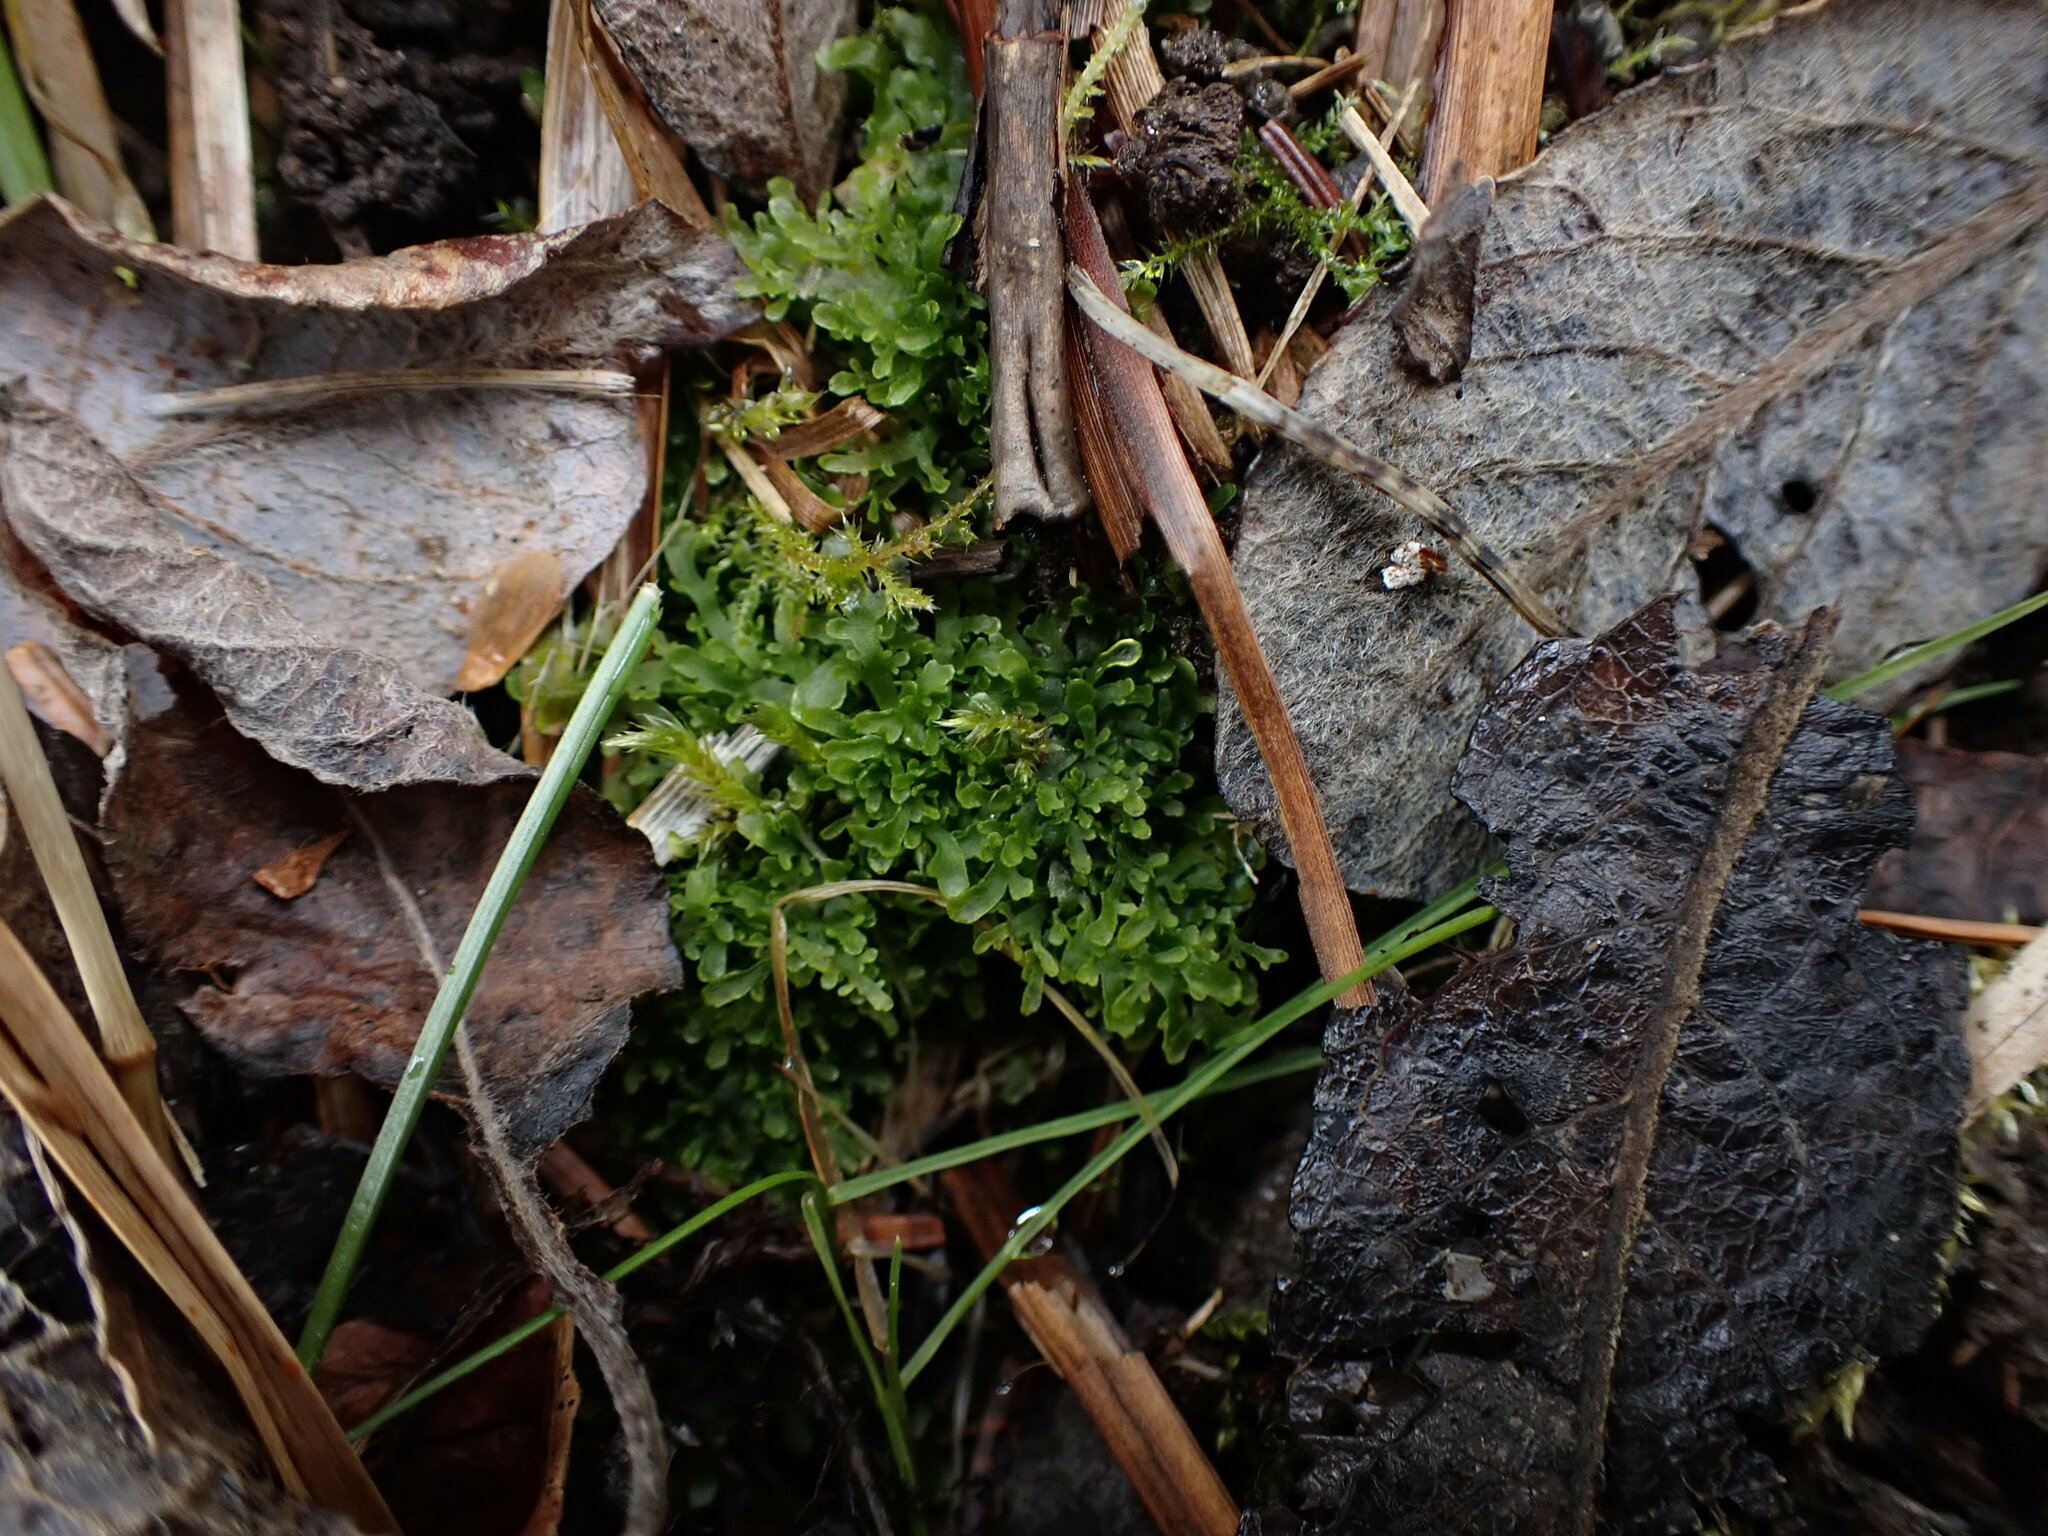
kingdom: Plantae
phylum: Marchantiophyta
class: Jungermanniopsida
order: Metzgeriales
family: Aneuraceae
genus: Riccardia
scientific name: Riccardia chamedryfolia
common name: Jagged germanderwort
